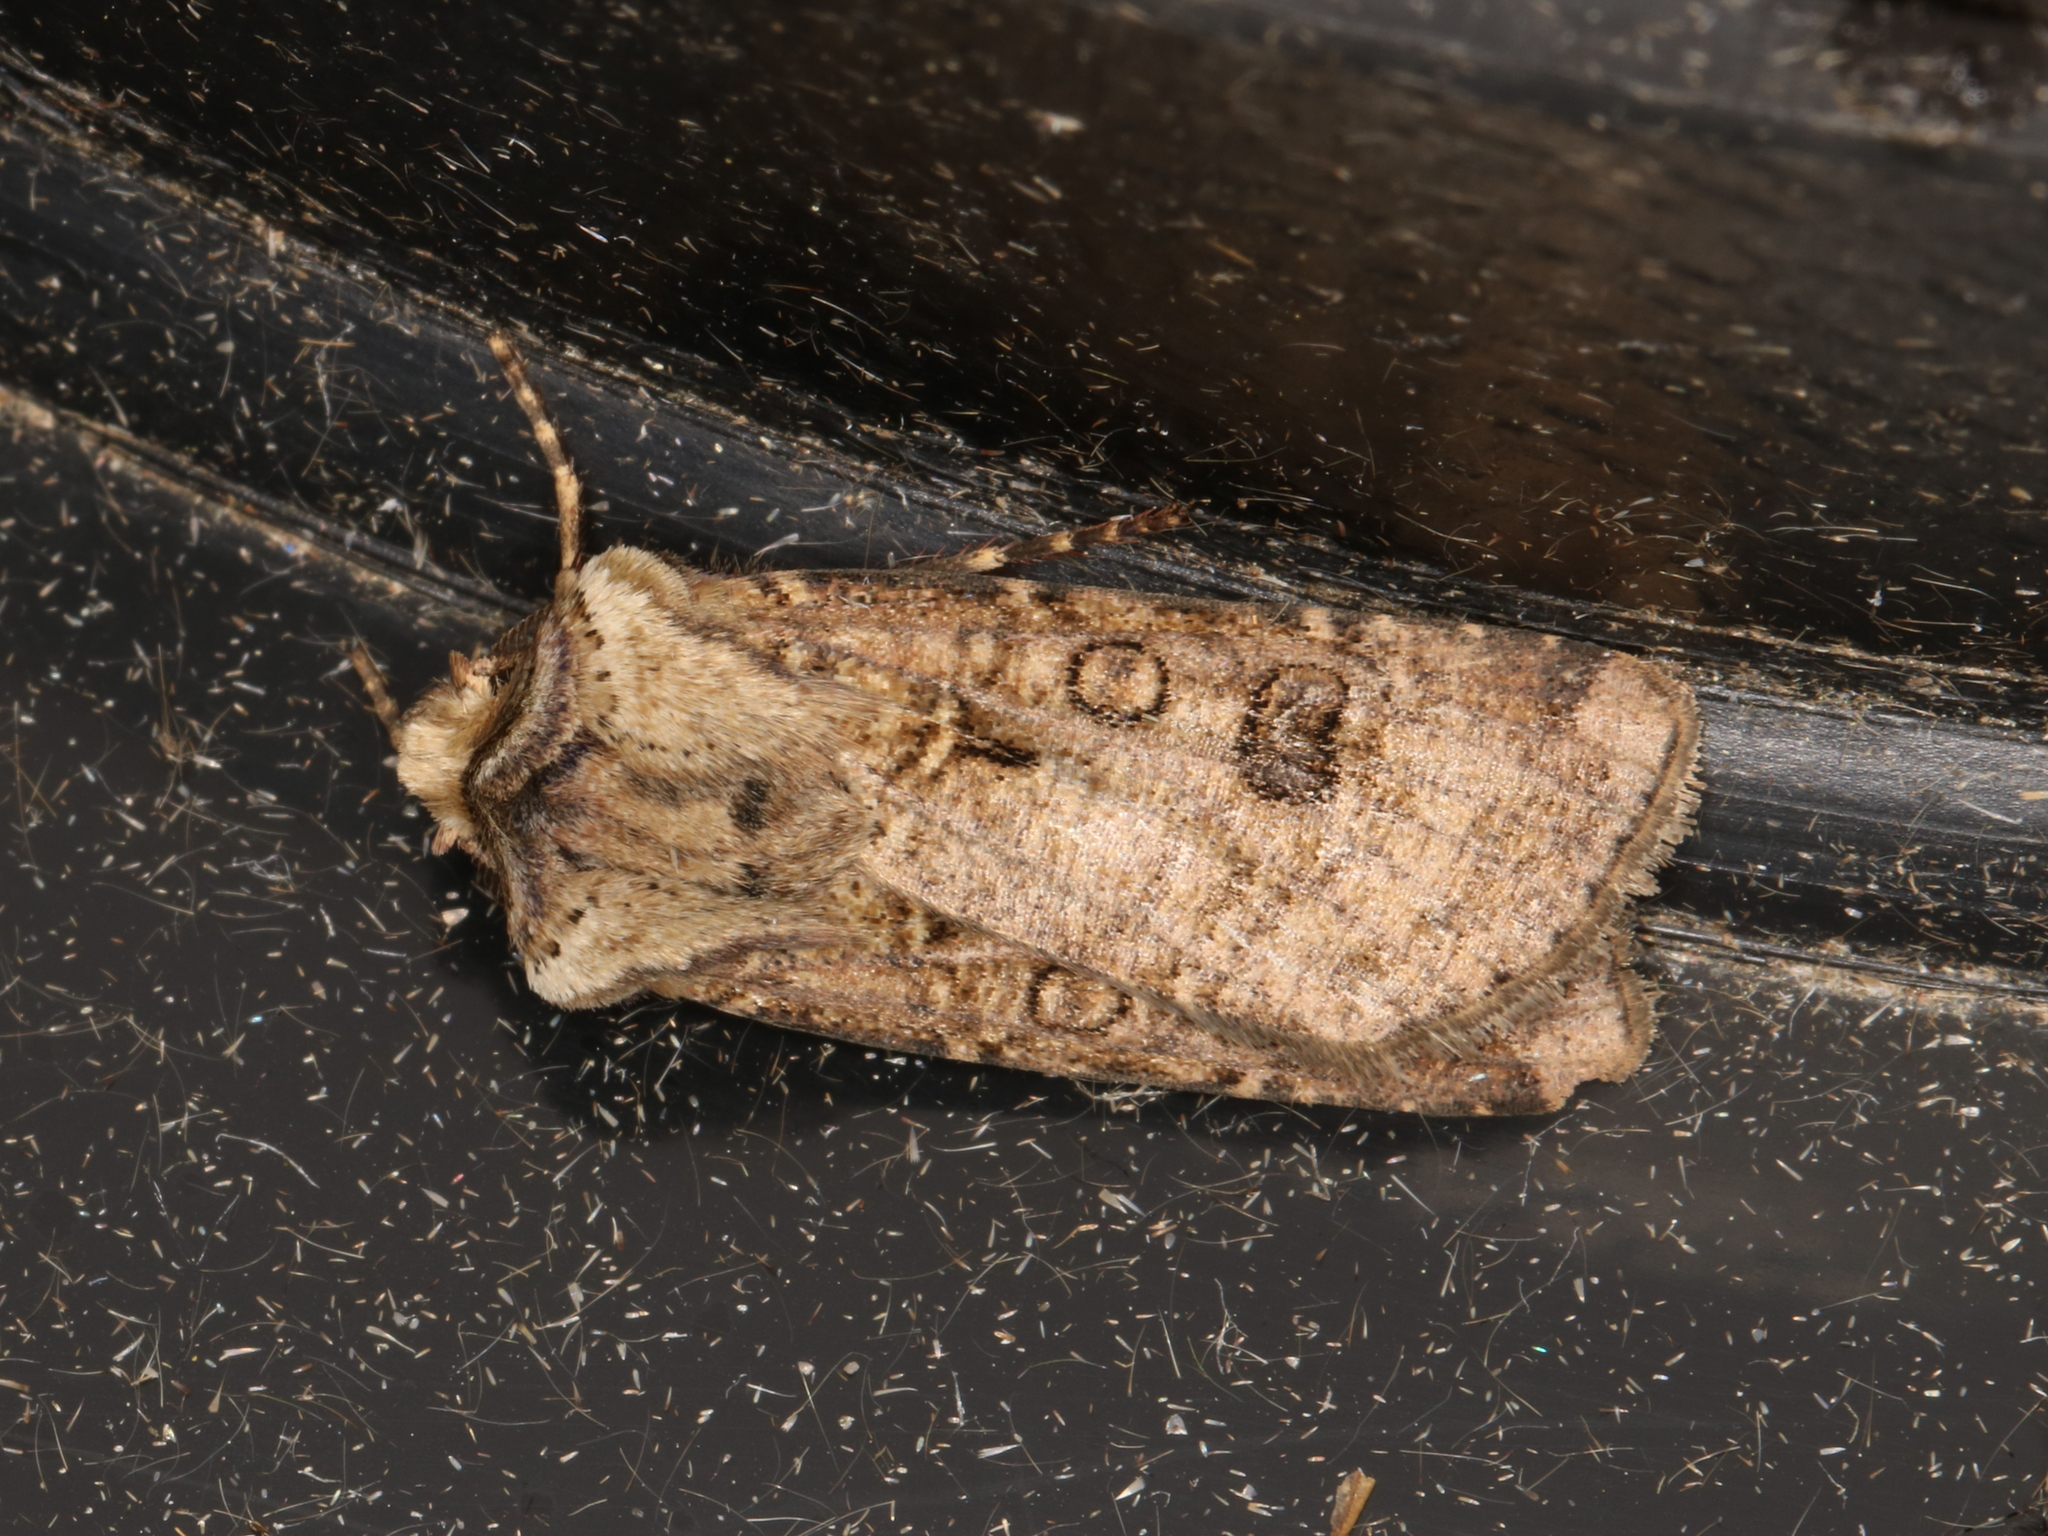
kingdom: Animalia
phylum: Arthropoda
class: Insecta
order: Lepidoptera
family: Noctuidae
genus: Agrotis
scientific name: Agrotis clavis
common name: Heart and club
